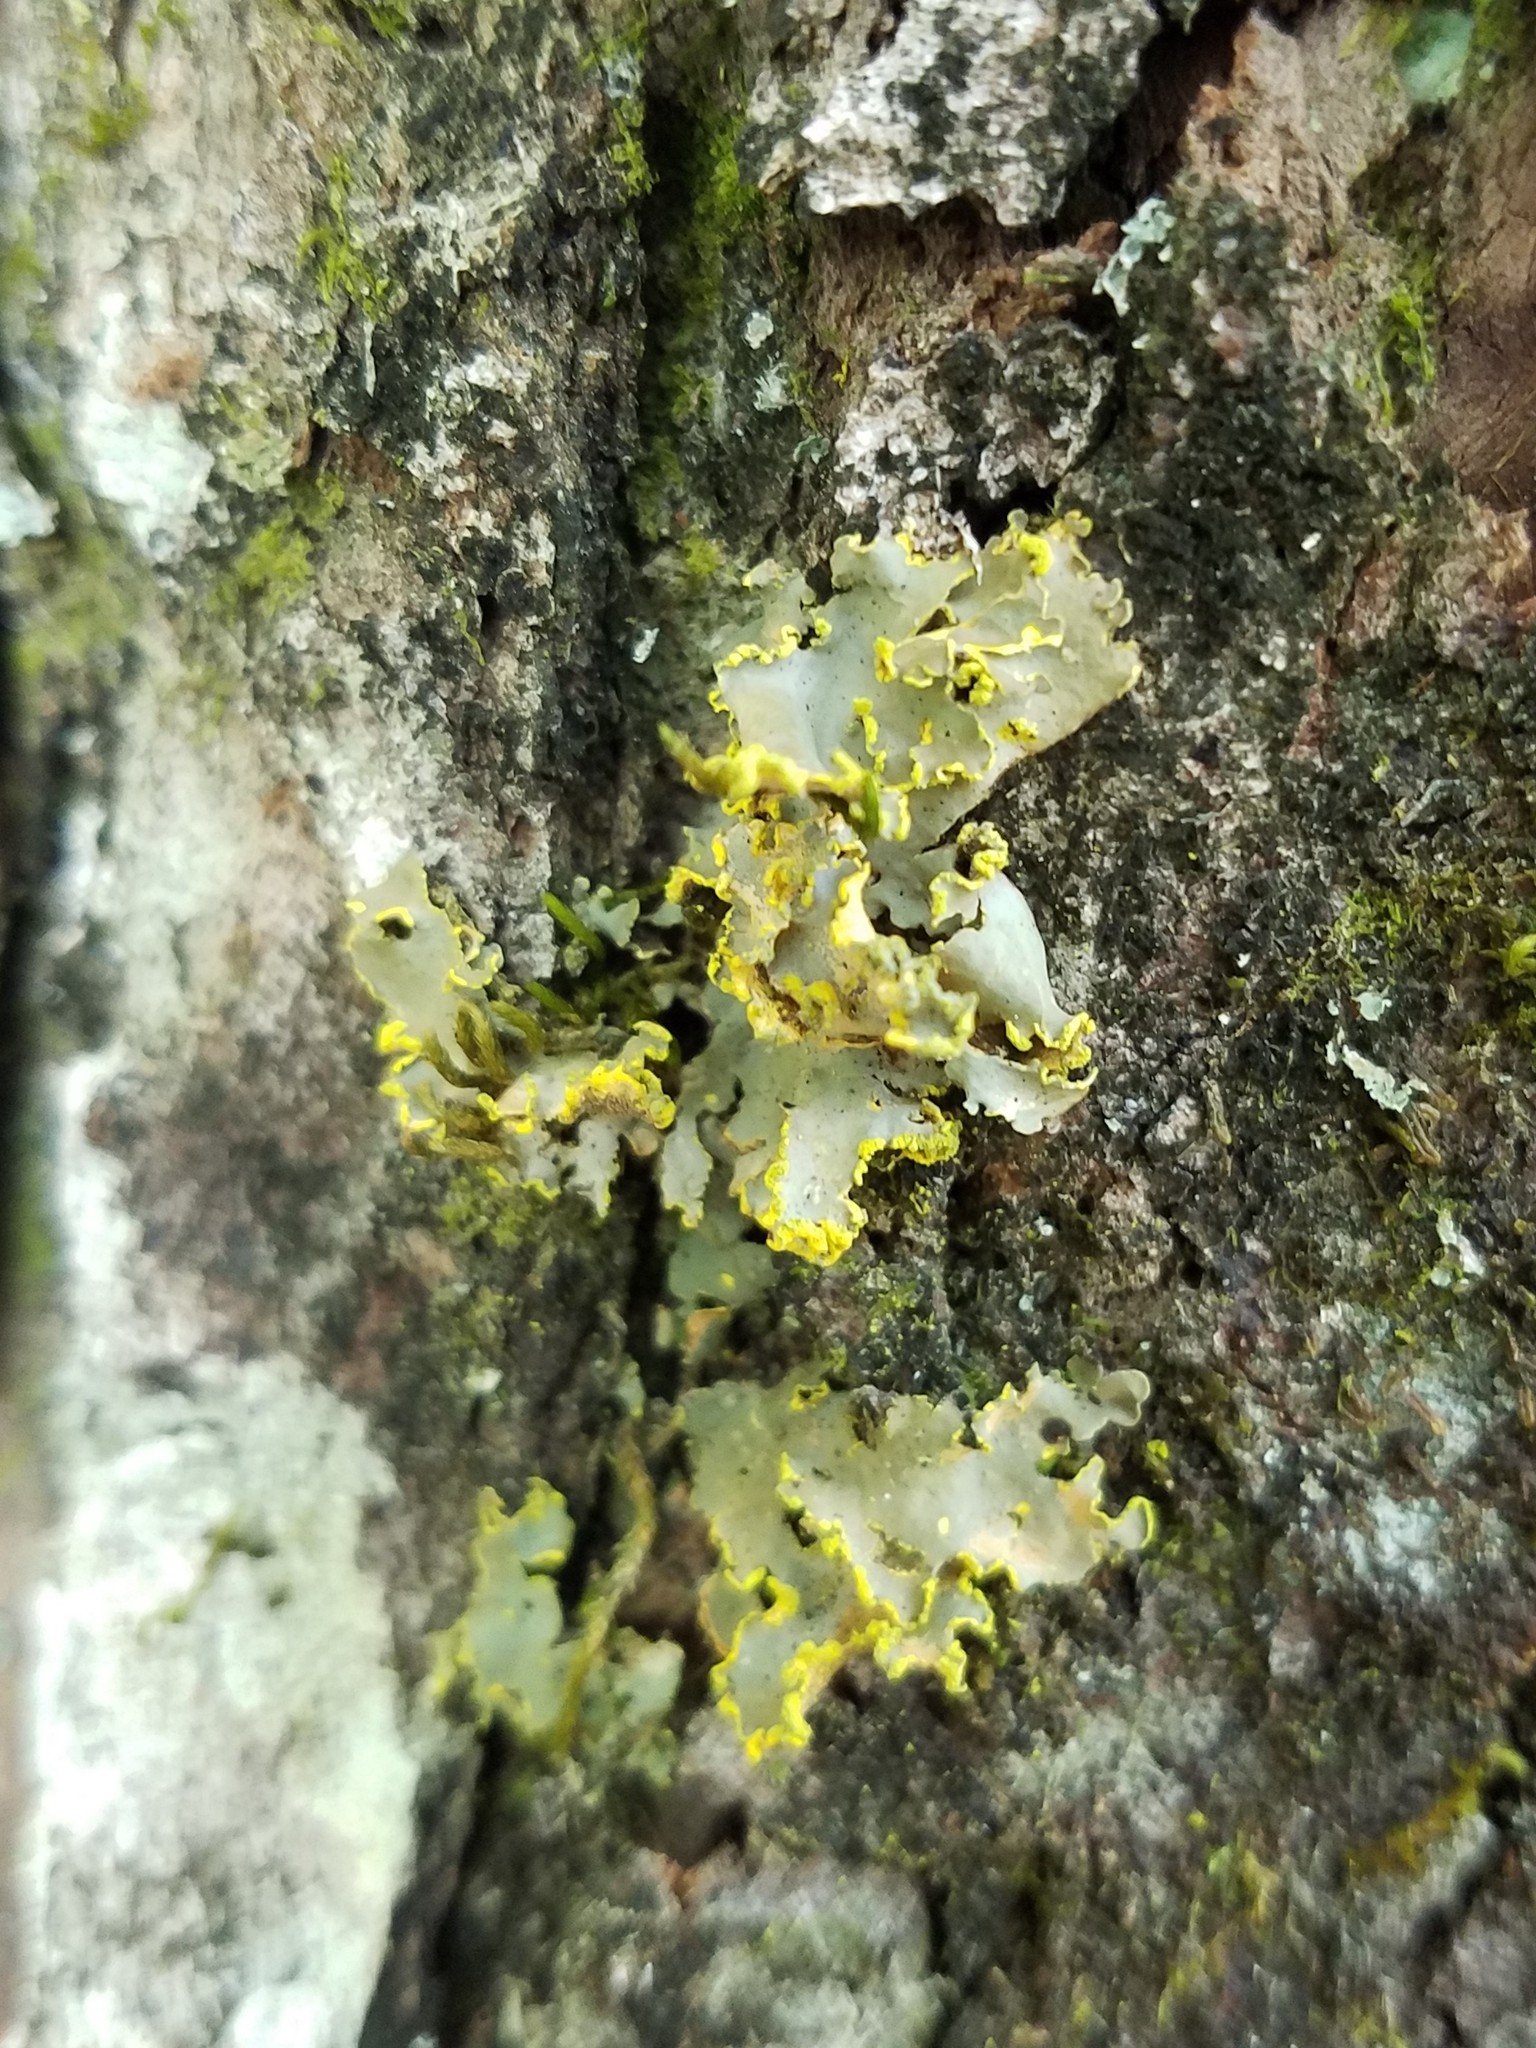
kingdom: Fungi
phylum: Ascomycota
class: Lecanoromycetes
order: Peltigerales
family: Lobariaceae
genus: Pseudocyphellaria
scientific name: Pseudocyphellaria aurata
